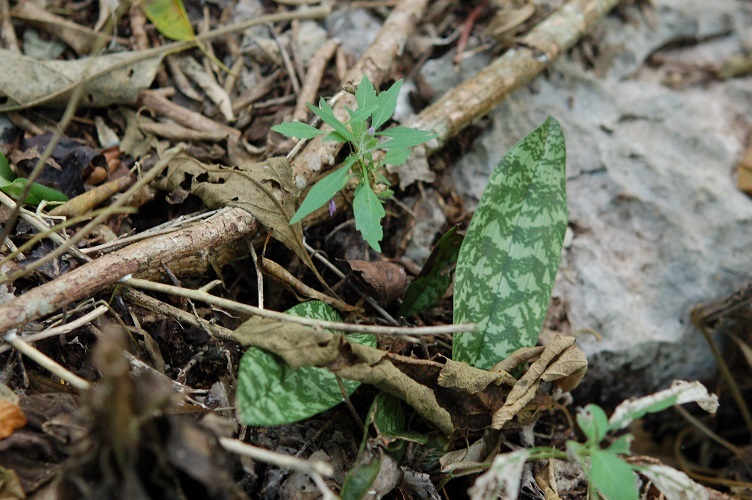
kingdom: Plantae
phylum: Tracheophyta
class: Liliopsida
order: Asparagales
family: Orchidaceae
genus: Eulophia
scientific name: Eulophia maculata
